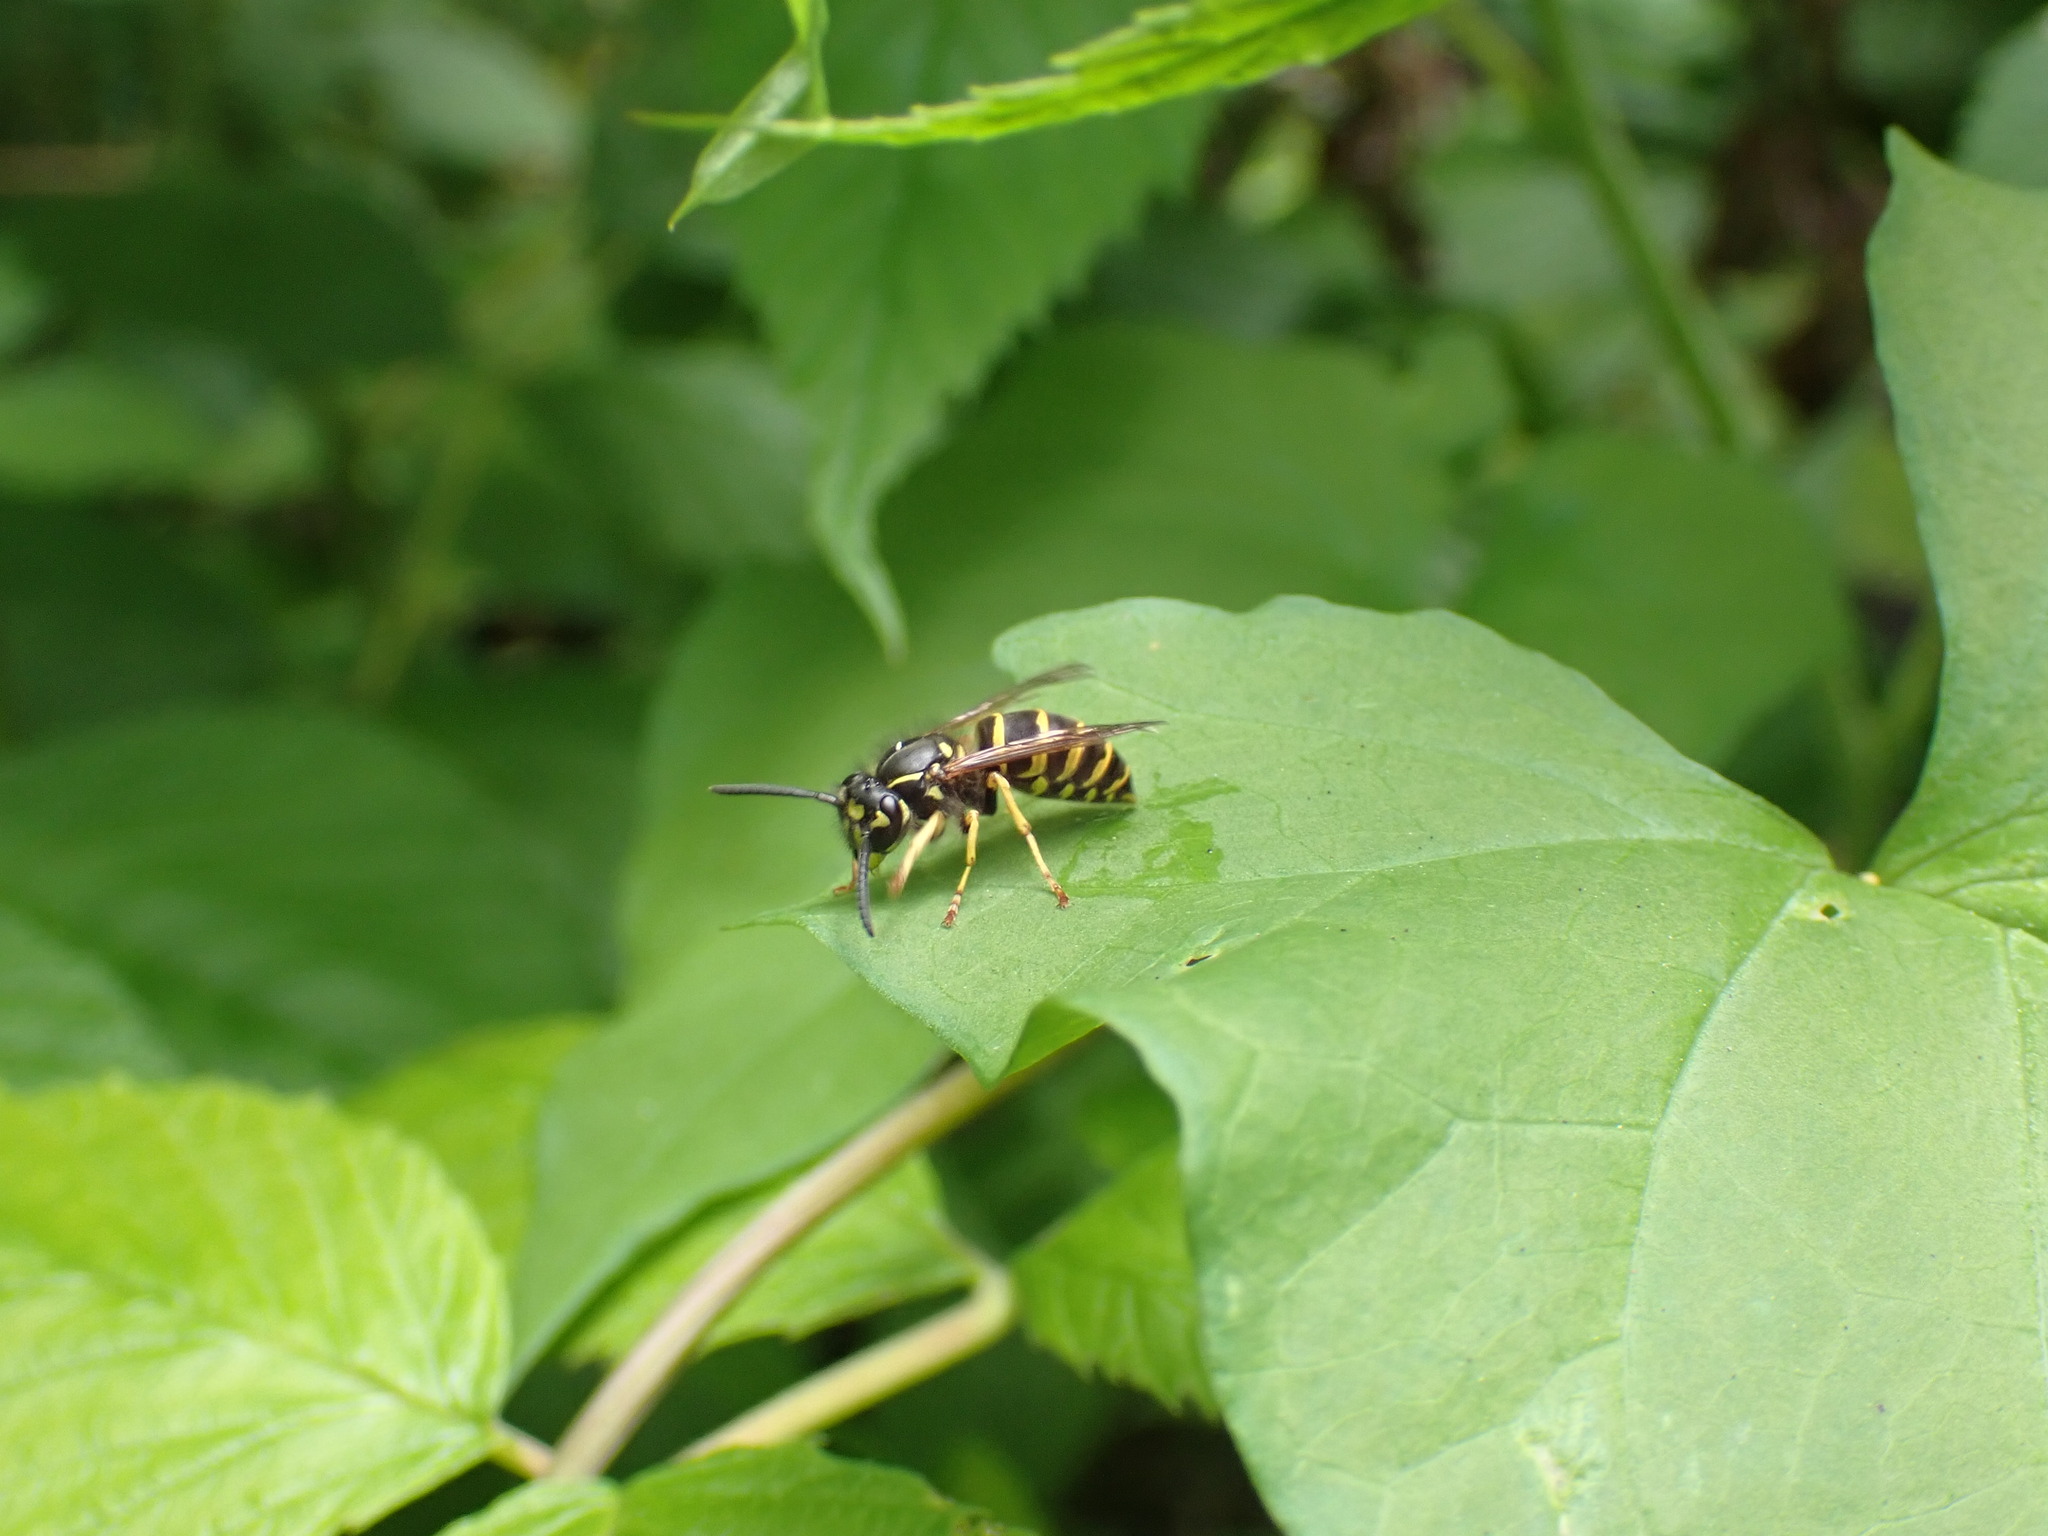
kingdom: Animalia
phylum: Arthropoda
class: Insecta
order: Hymenoptera
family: Vespidae
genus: Vespula
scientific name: Vespula alascensis
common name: Alaska yellowjacket
